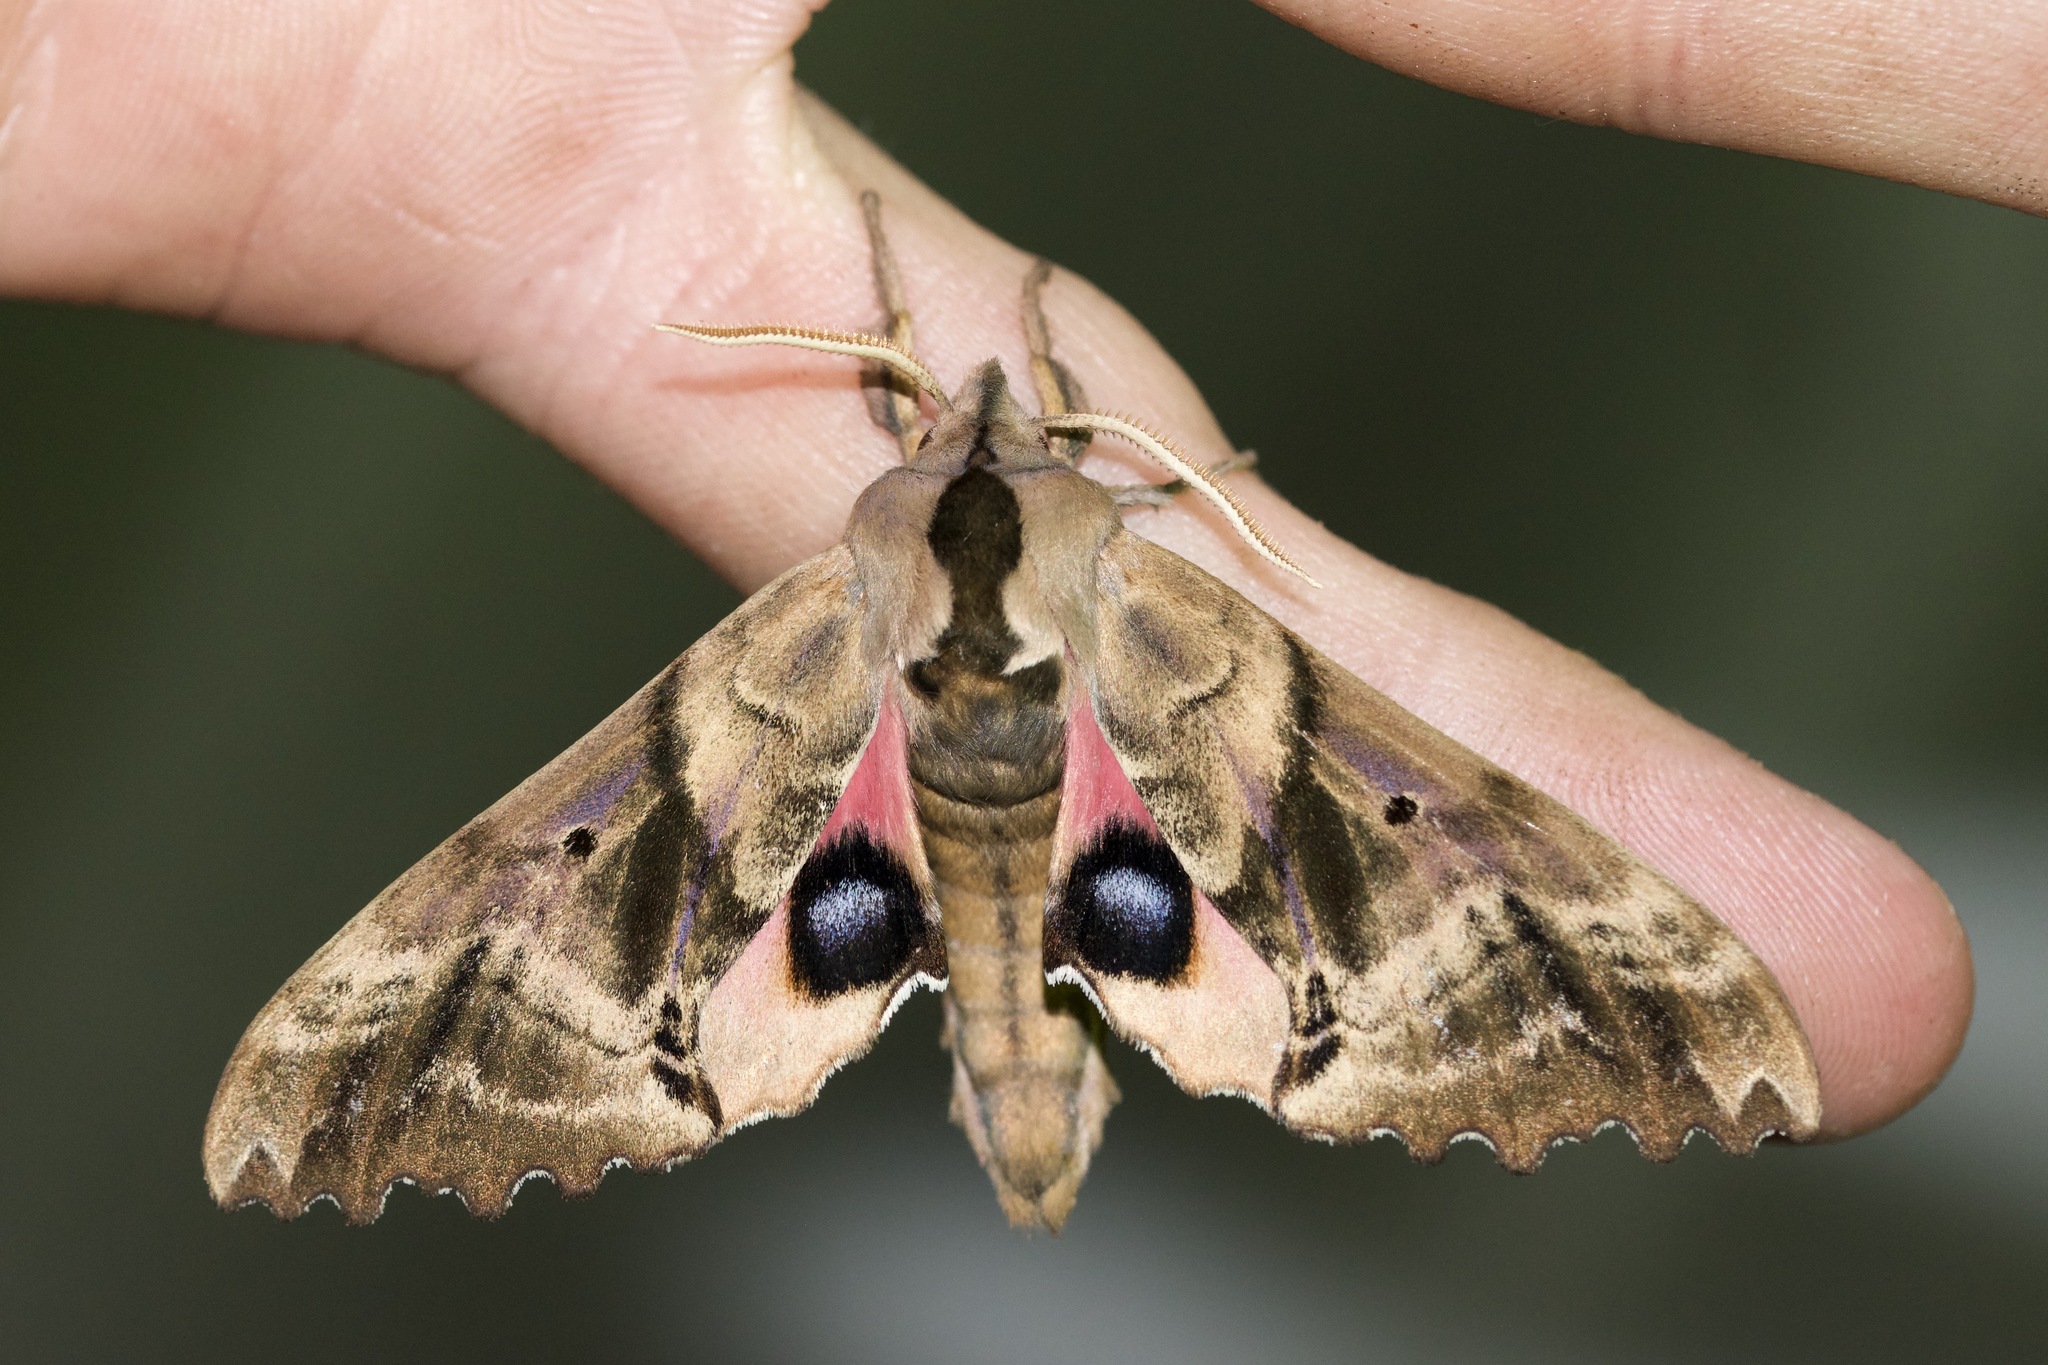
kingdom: Animalia
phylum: Arthropoda
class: Insecta
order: Lepidoptera
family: Sphingidae
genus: Paonias
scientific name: Paonias excaecata
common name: Blind-eyed sphinx
